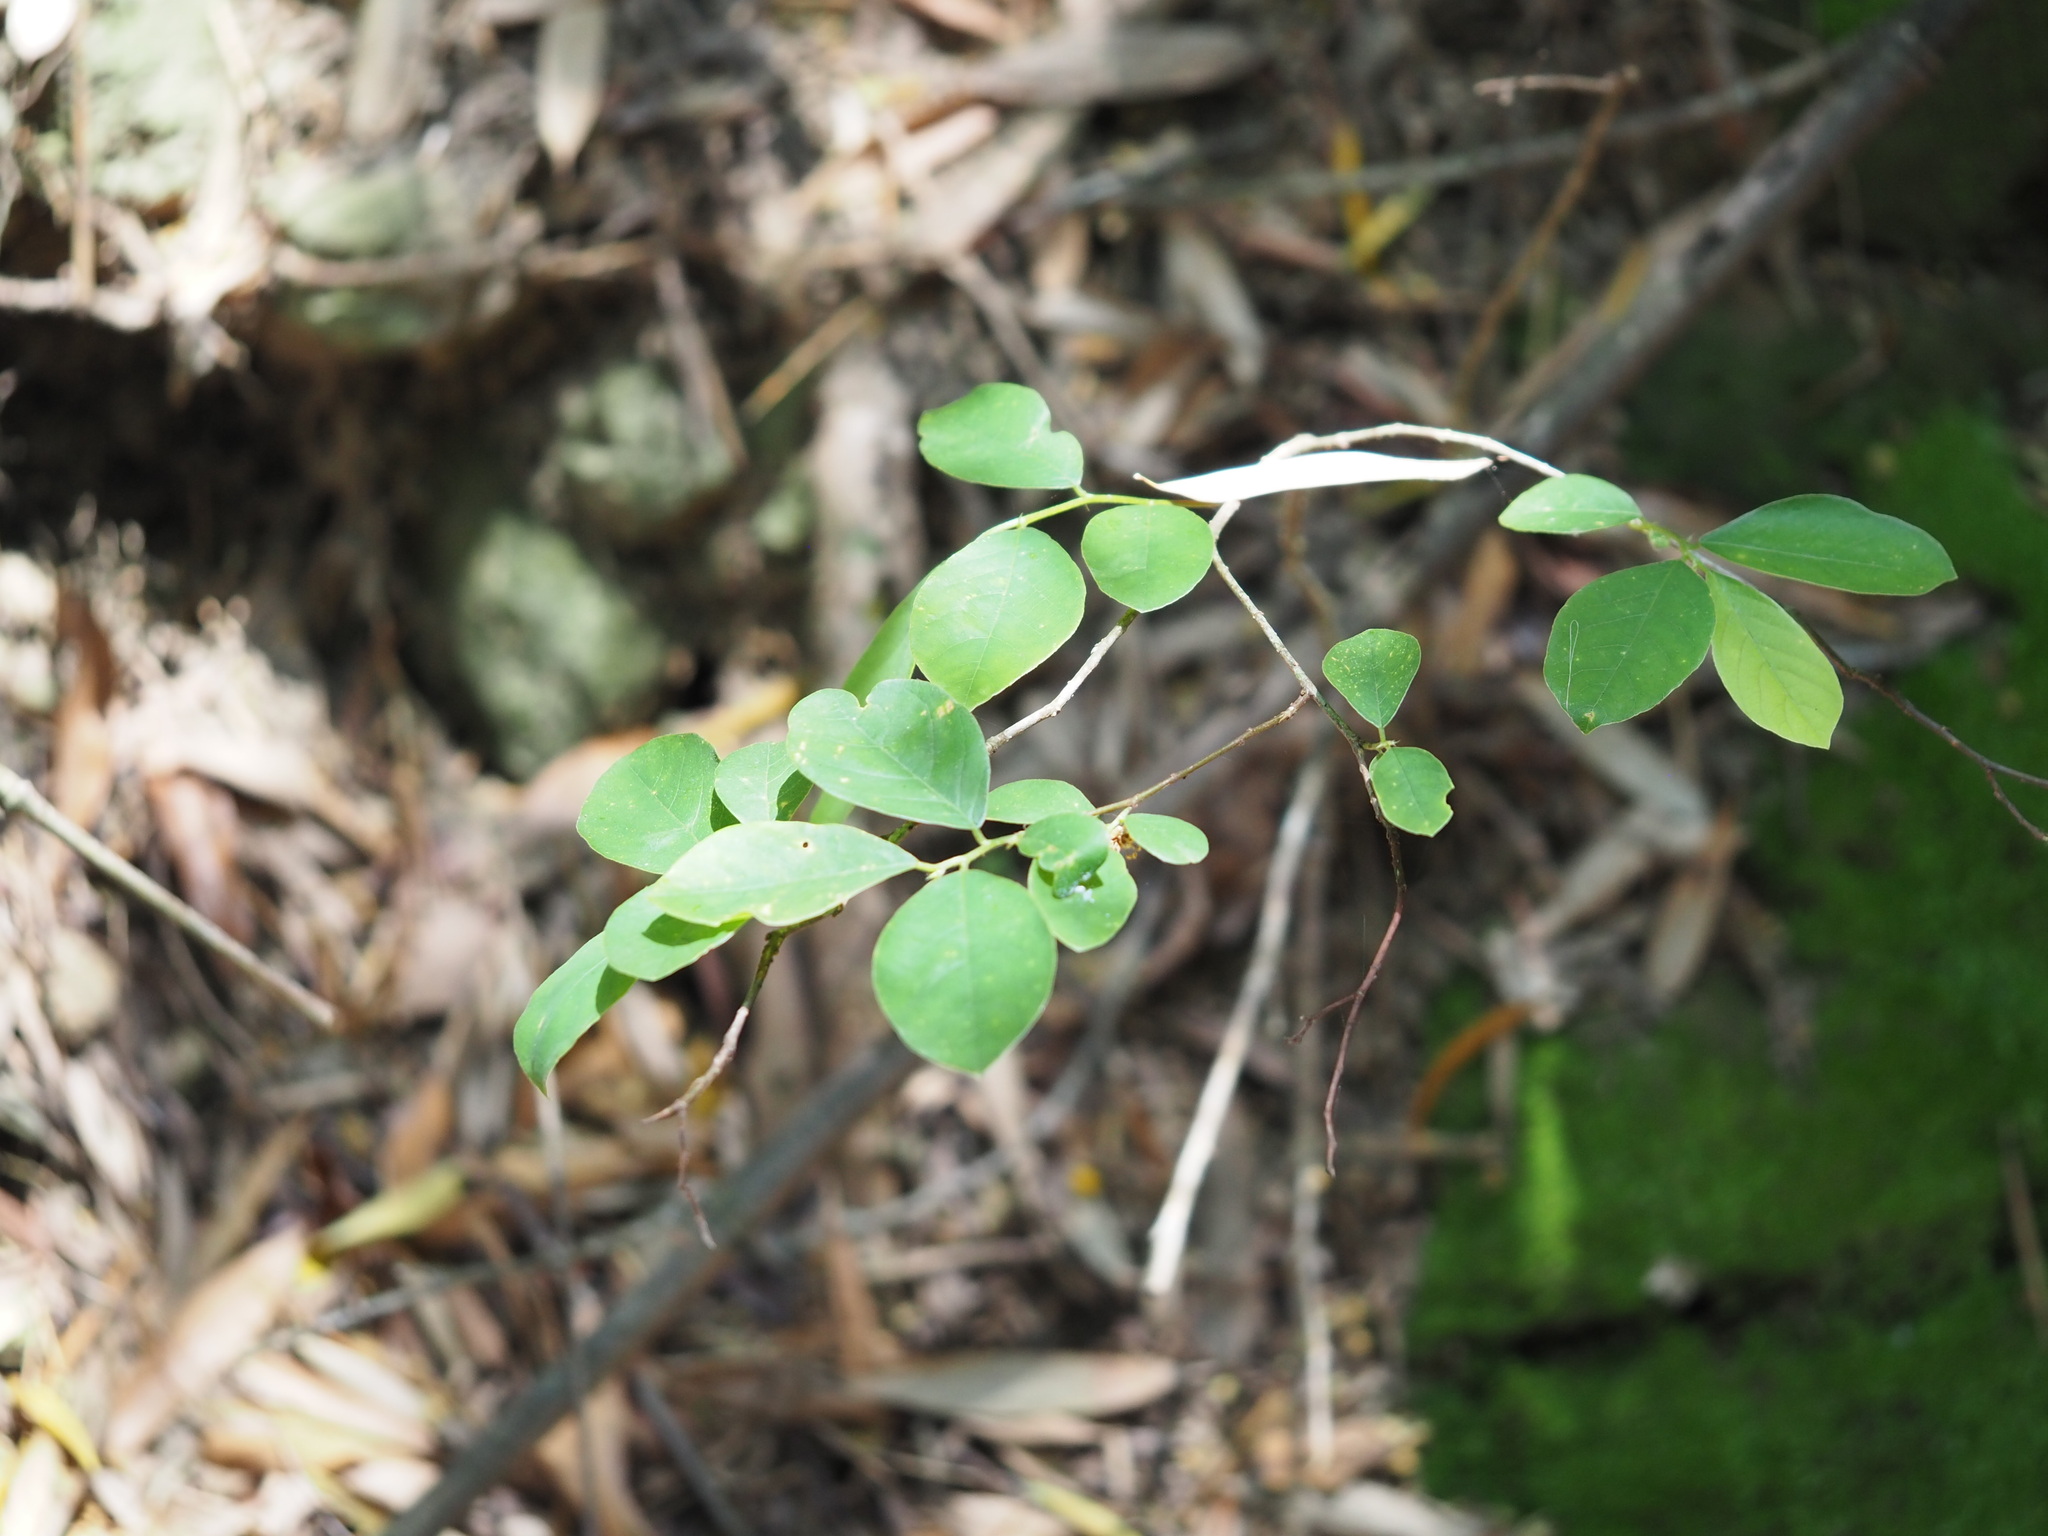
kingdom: Plantae
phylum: Tracheophyta
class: Magnoliopsida
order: Malpighiales
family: Phyllanthaceae
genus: Bridelia
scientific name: Bridelia tomentosa
